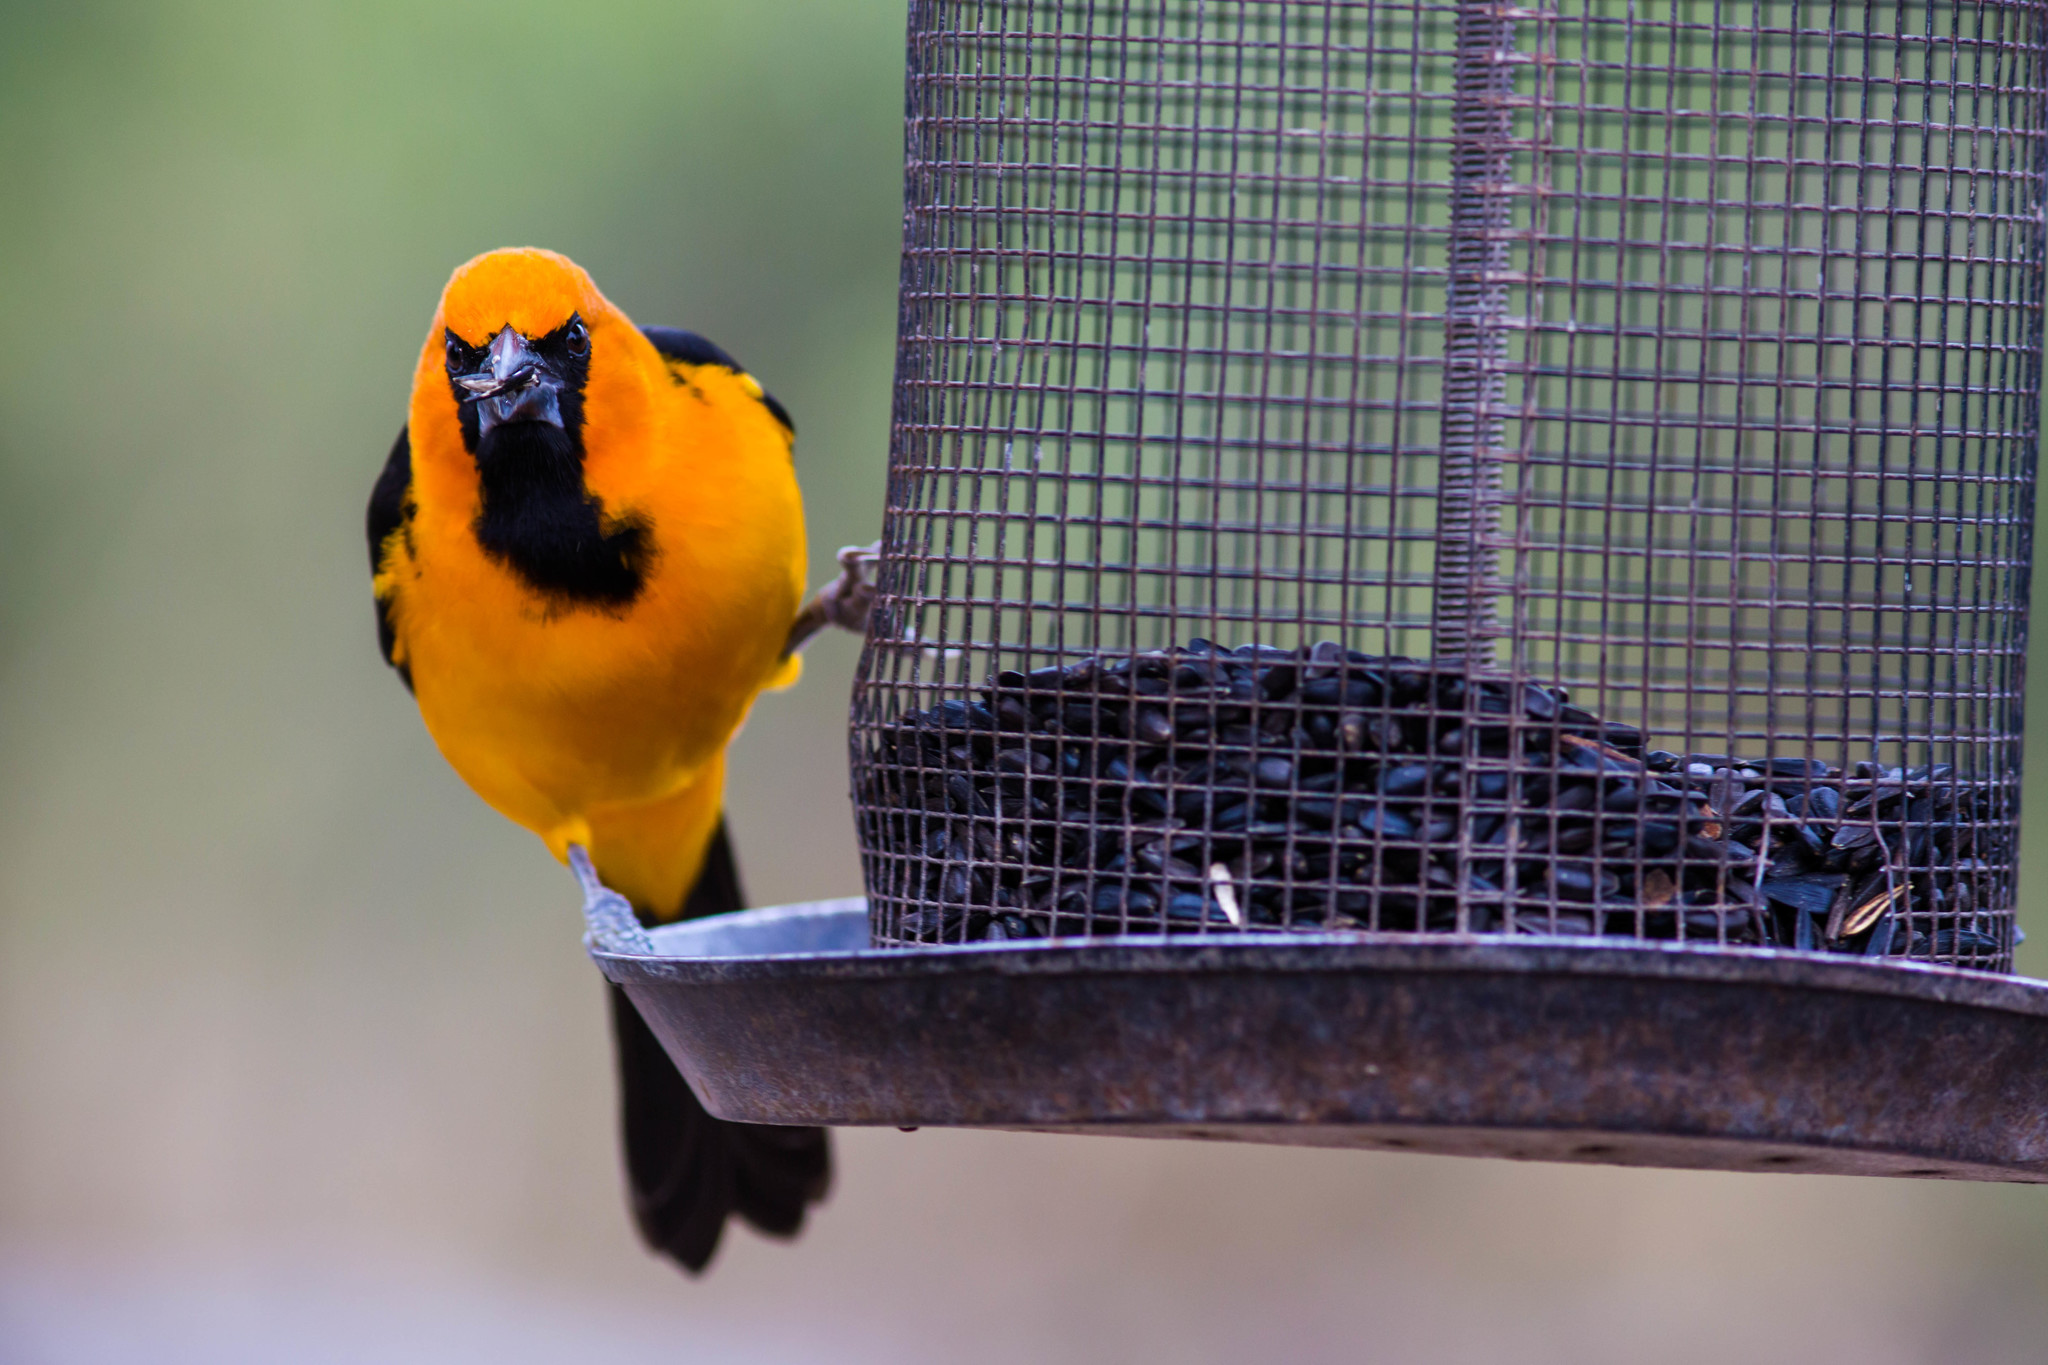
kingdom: Animalia
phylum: Chordata
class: Aves
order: Passeriformes
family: Icteridae
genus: Icterus
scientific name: Icterus gularis
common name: Altamira oriole
